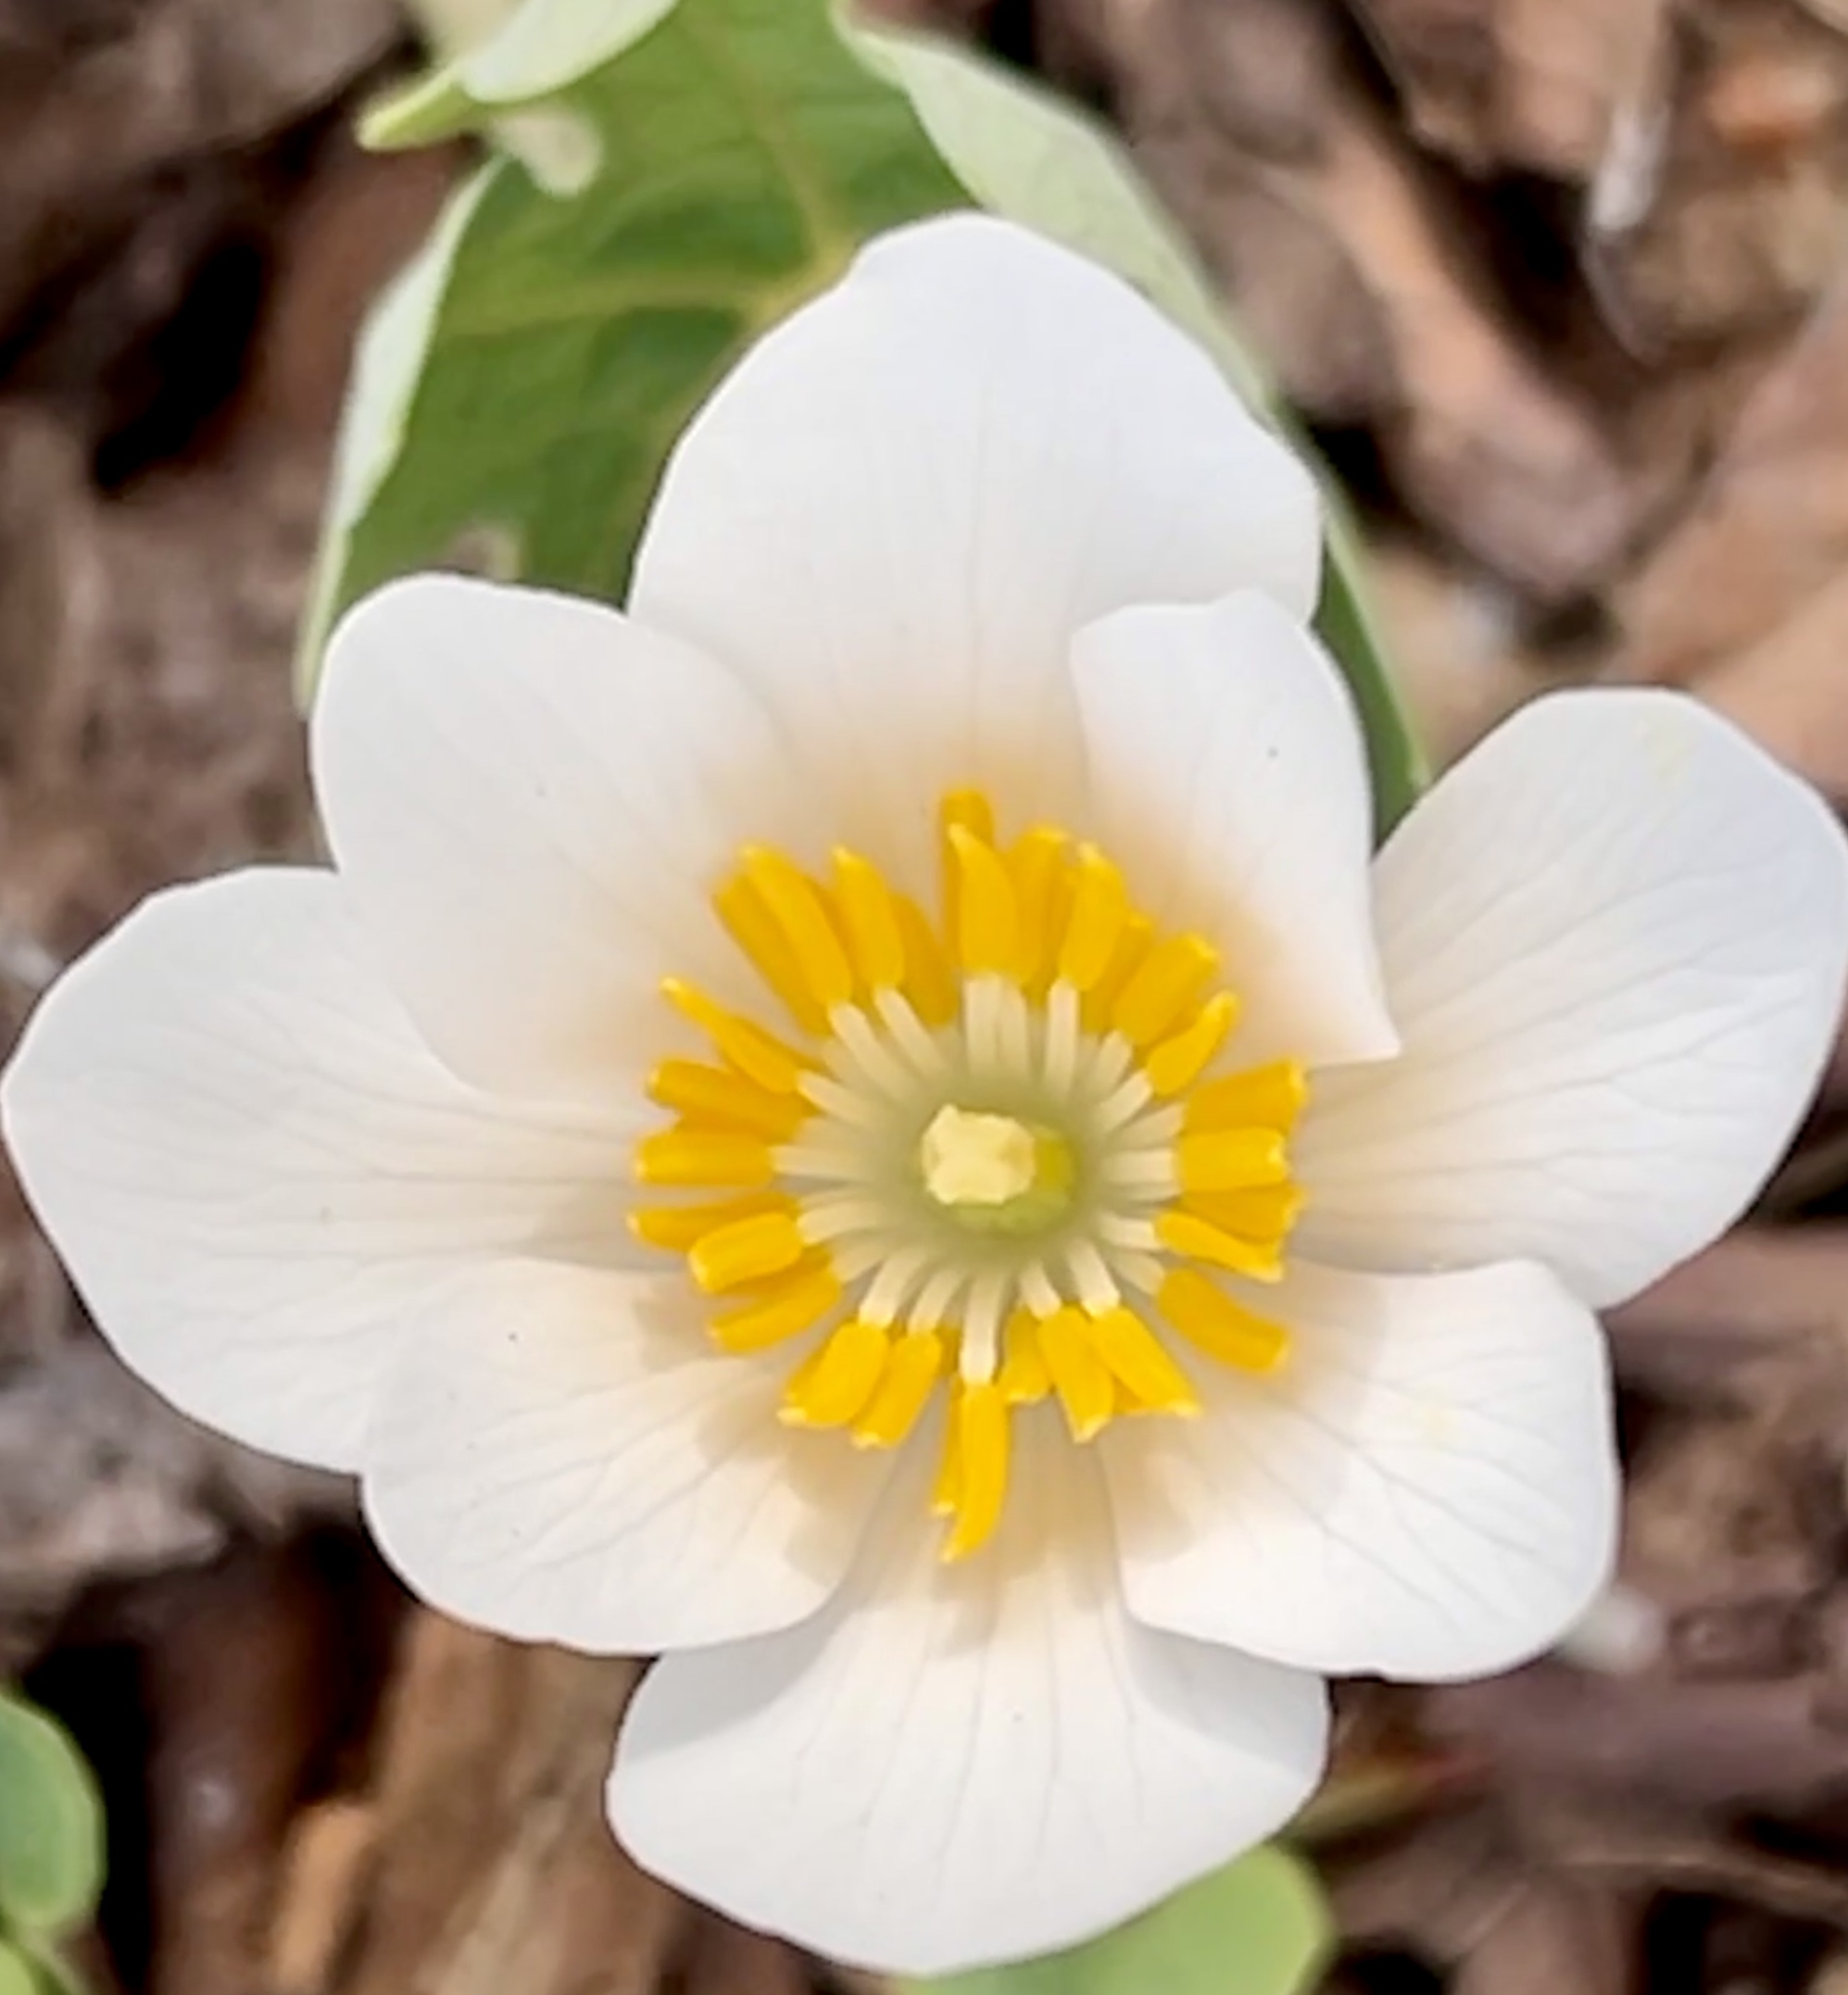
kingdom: Plantae
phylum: Tracheophyta
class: Magnoliopsida
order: Ranunculales
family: Papaveraceae
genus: Sanguinaria
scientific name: Sanguinaria canadensis
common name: Bloodroot
